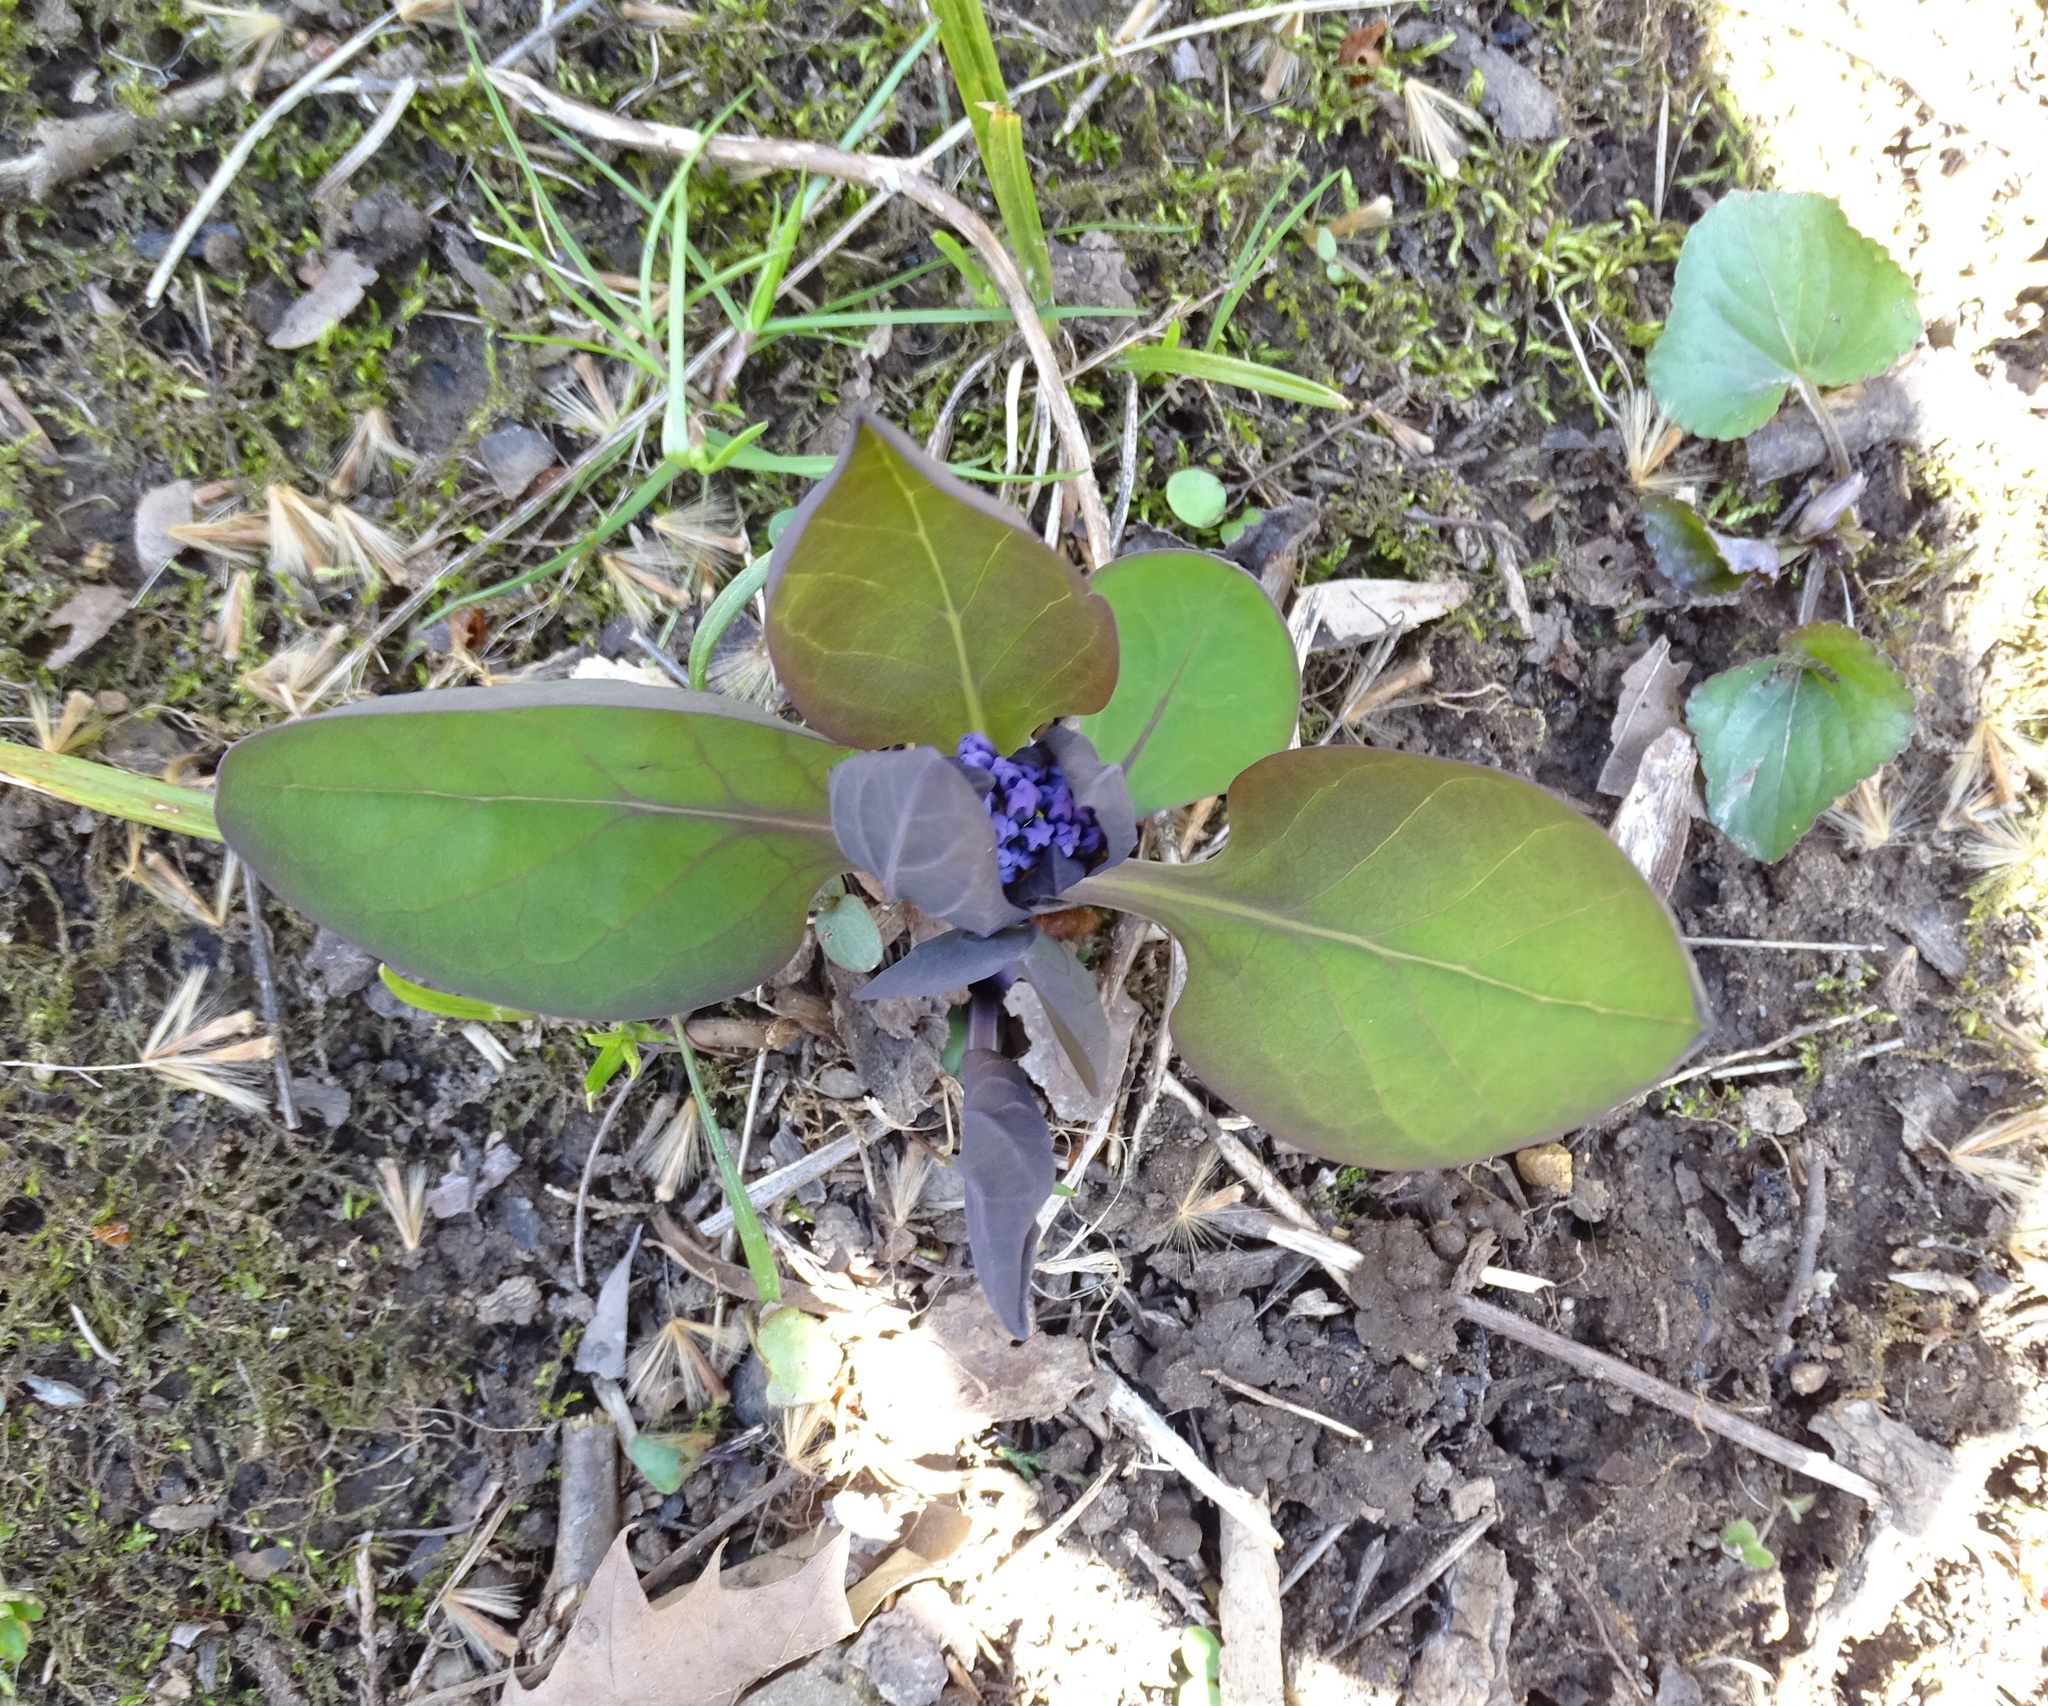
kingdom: Plantae
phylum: Tracheophyta
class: Magnoliopsida
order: Boraginales
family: Boraginaceae
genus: Mertensia
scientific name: Mertensia virginica
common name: Virginia bluebells
